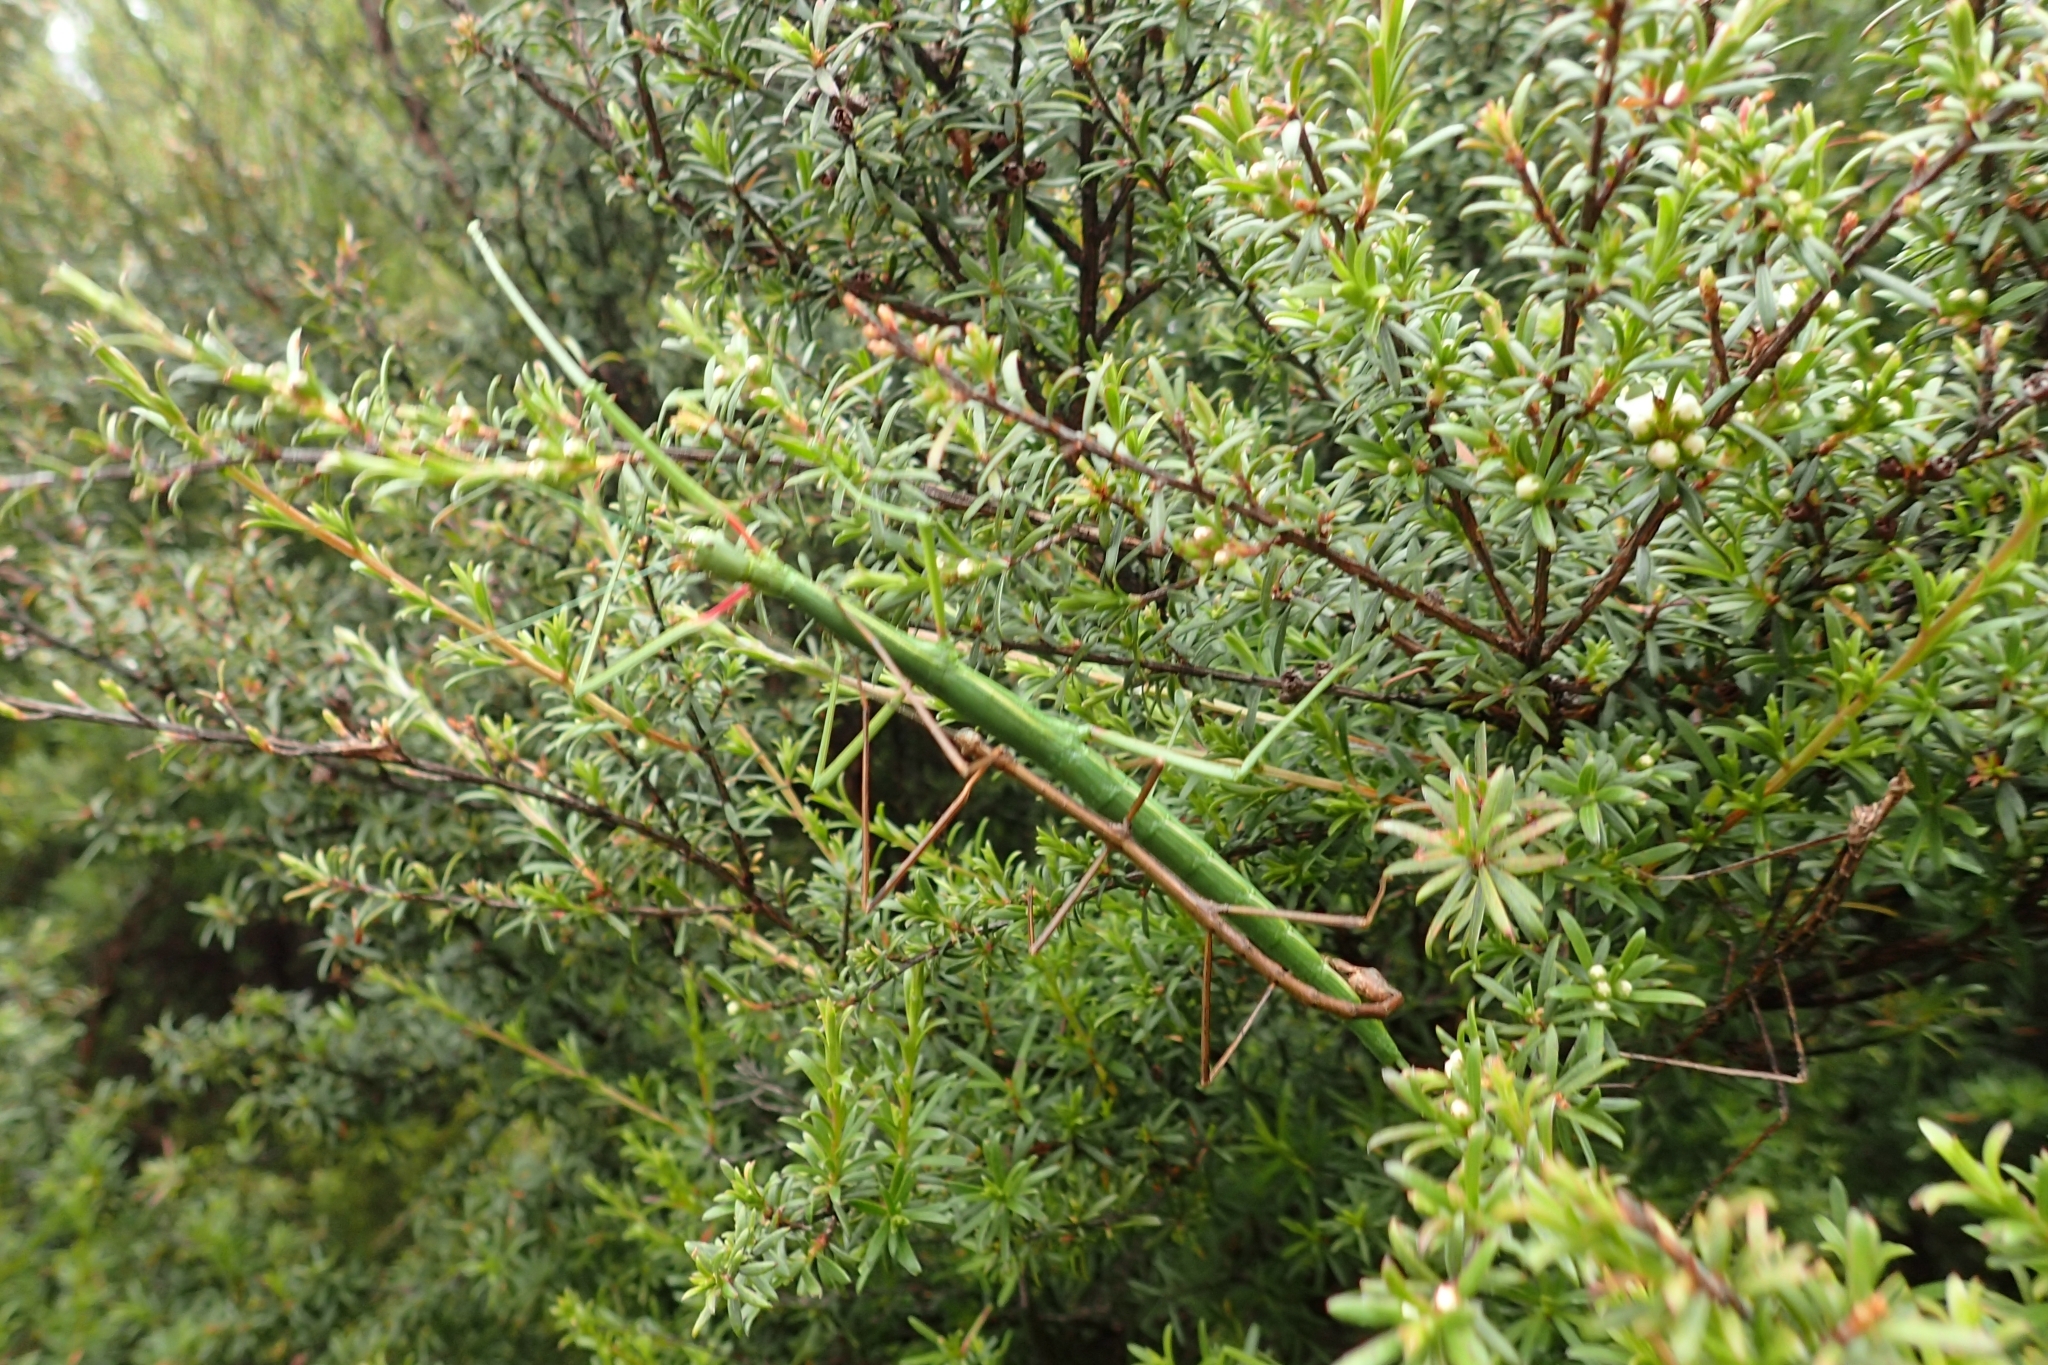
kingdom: Animalia
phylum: Arthropoda
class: Insecta
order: Phasmida
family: Phasmatidae
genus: Clitarchus
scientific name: Clitarchus hookeri
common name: Smooth stick insect
